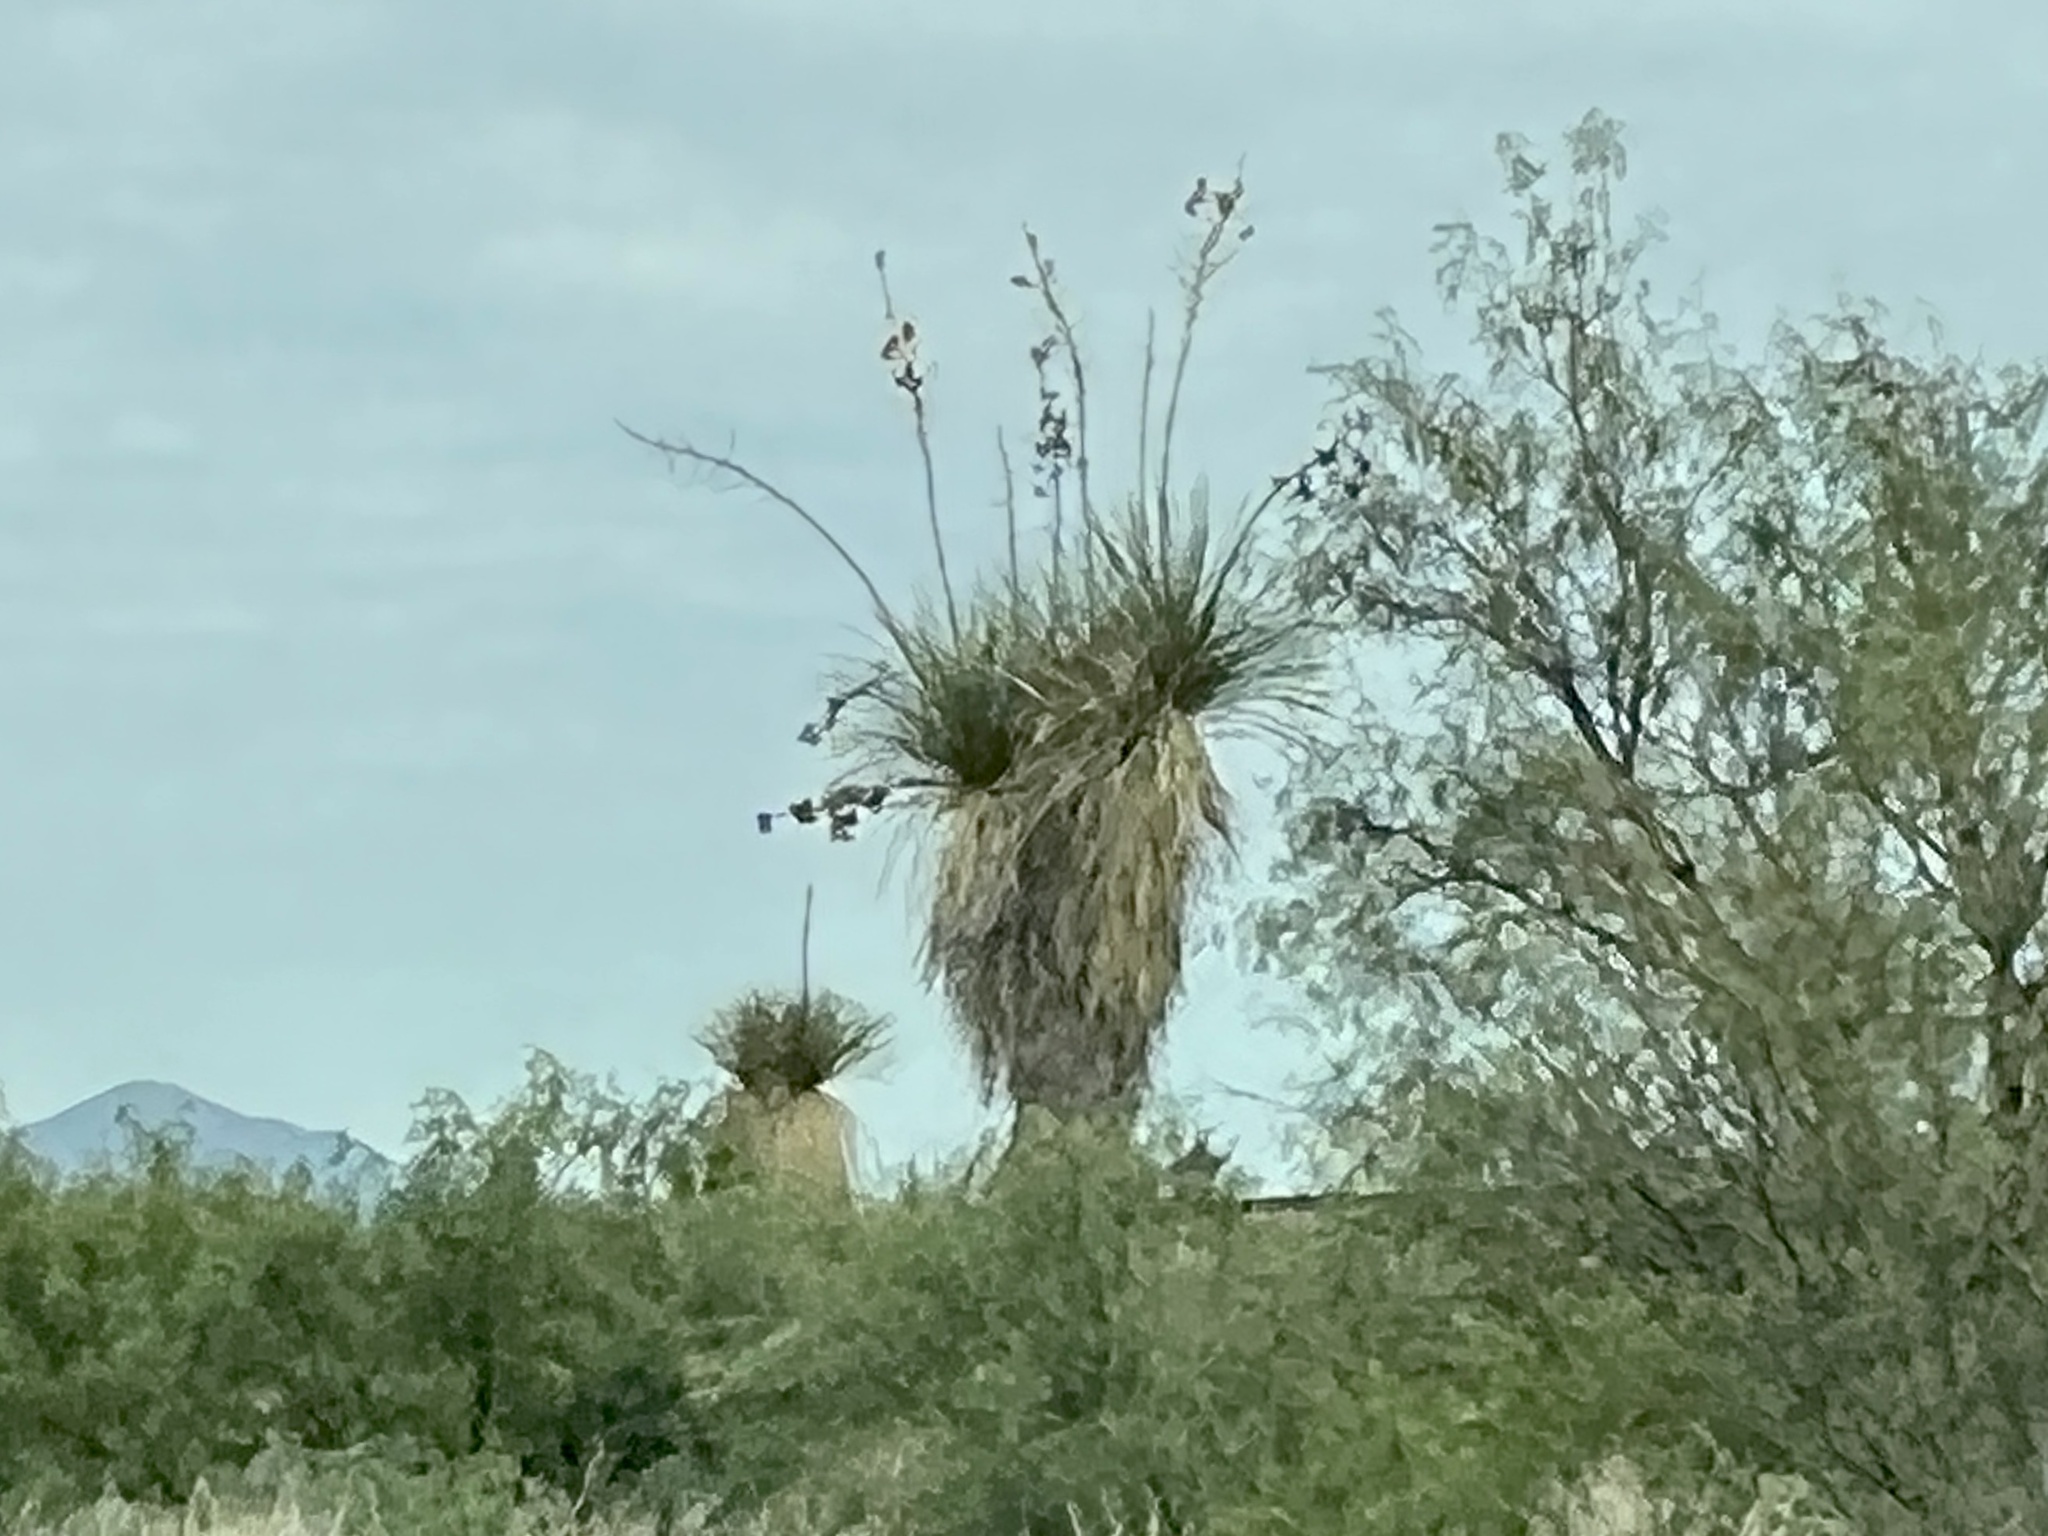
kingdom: Plantae
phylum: Tracheophyta
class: Liliopsida
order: Asparagales
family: Asparagaceae
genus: Yucca
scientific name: Yucca elata
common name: Palmella
